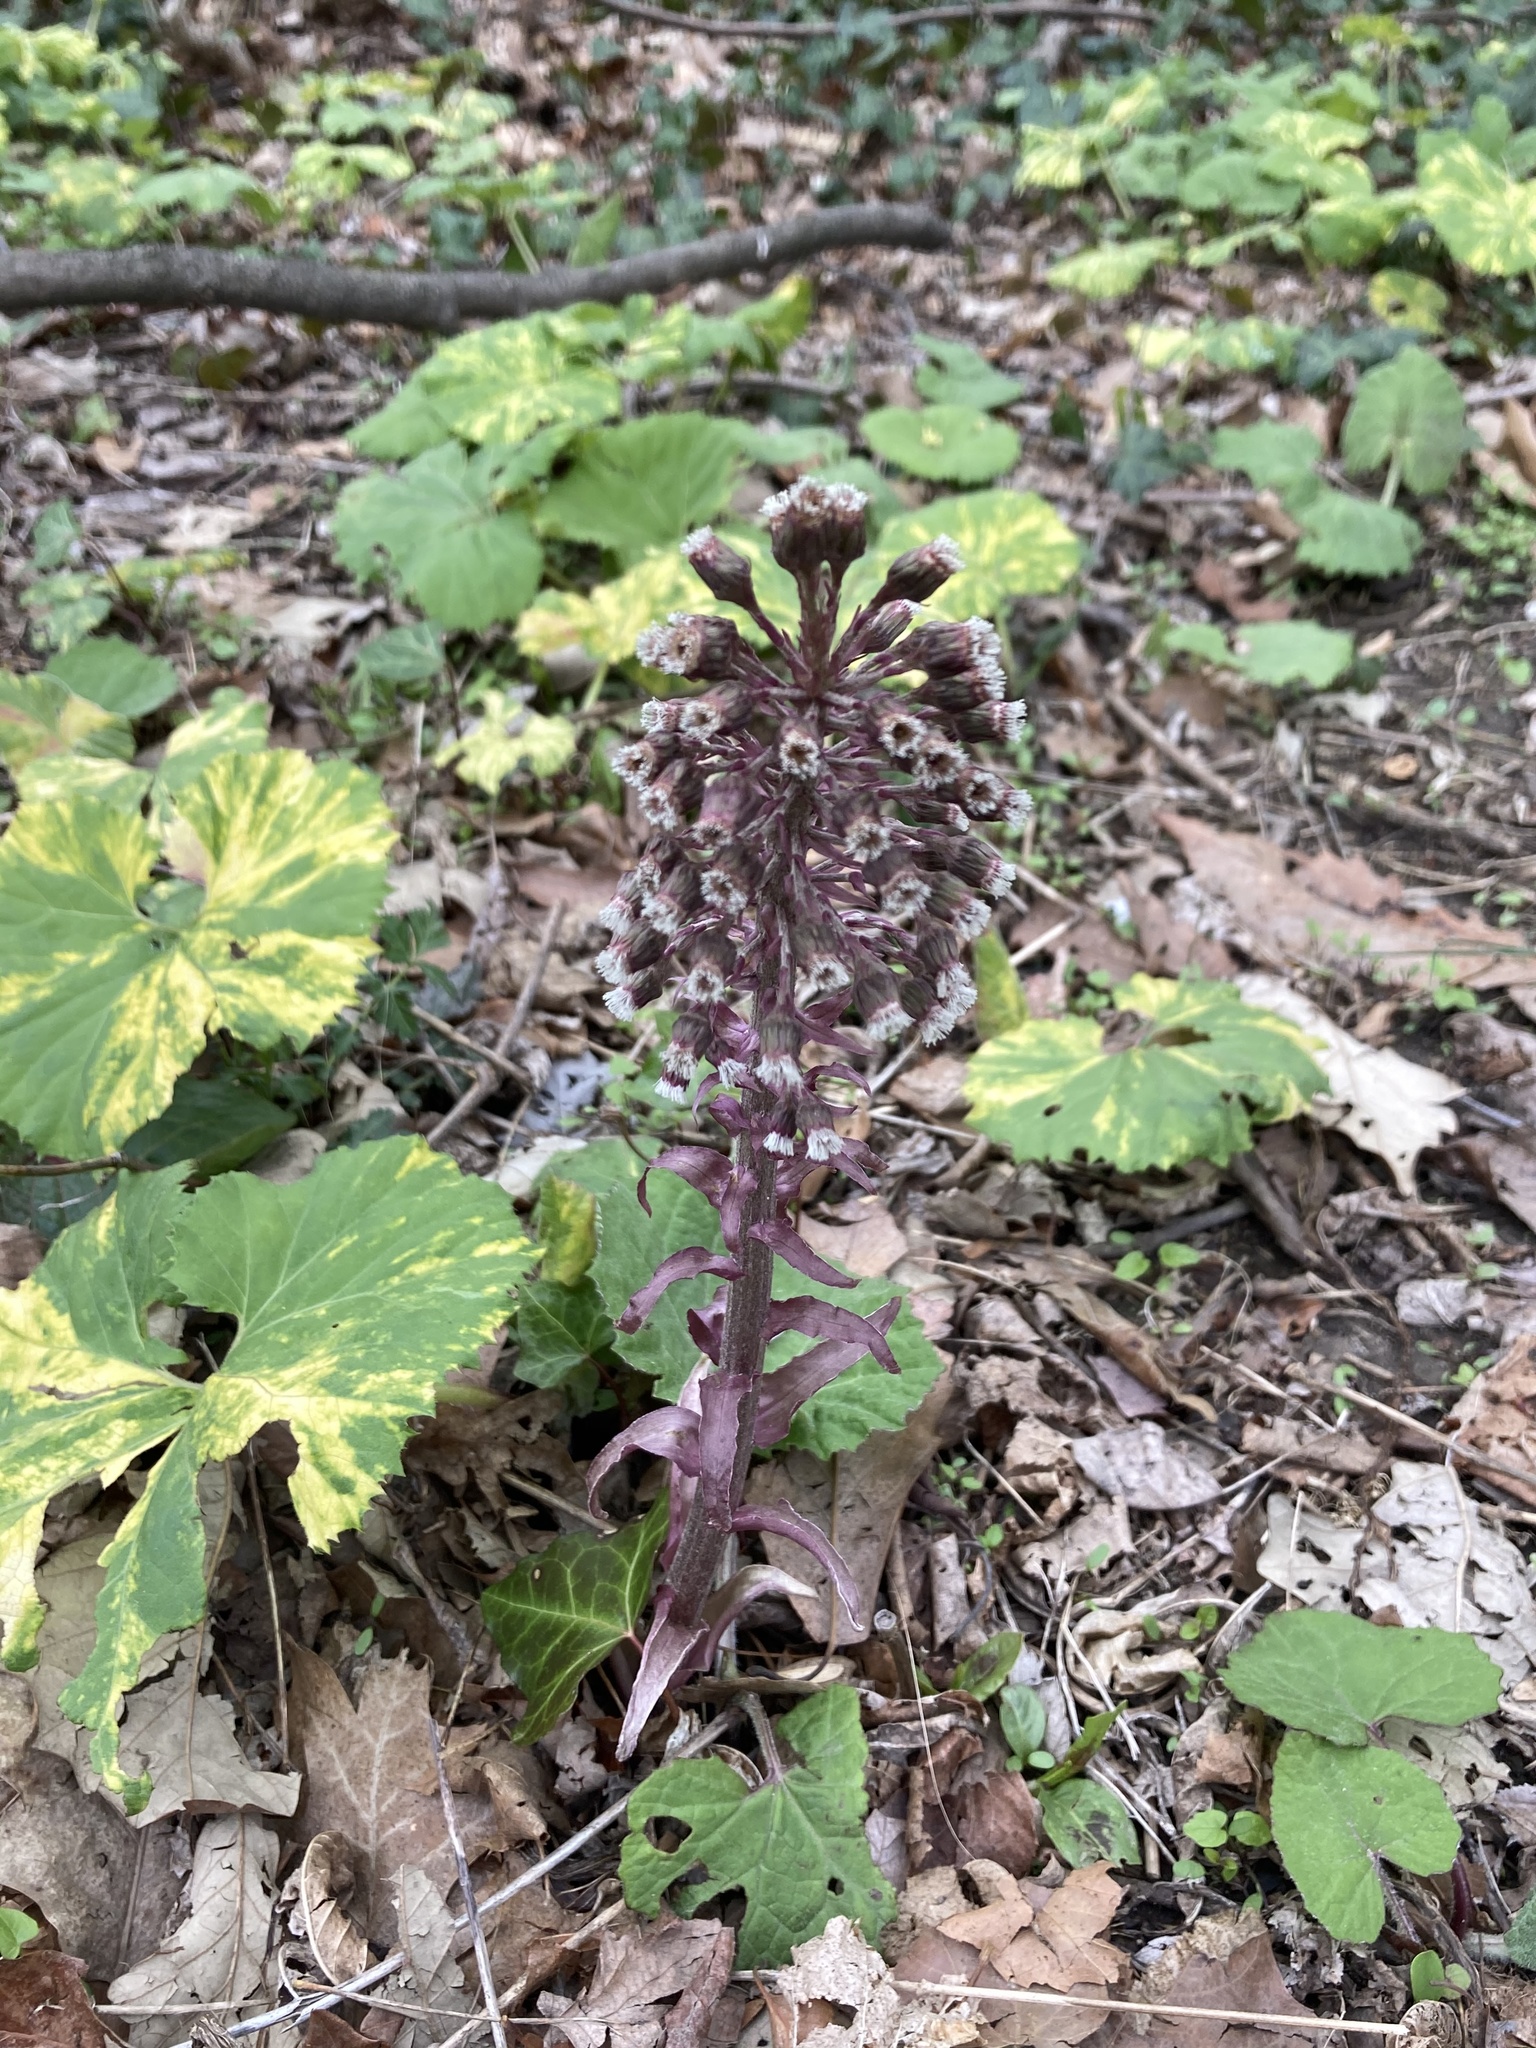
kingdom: Plantae
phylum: Tracheophyta
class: Magnoliopsida
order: Asterales
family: Asteraceae
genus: Petasites
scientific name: Petasites hybridus
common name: Butterbur
